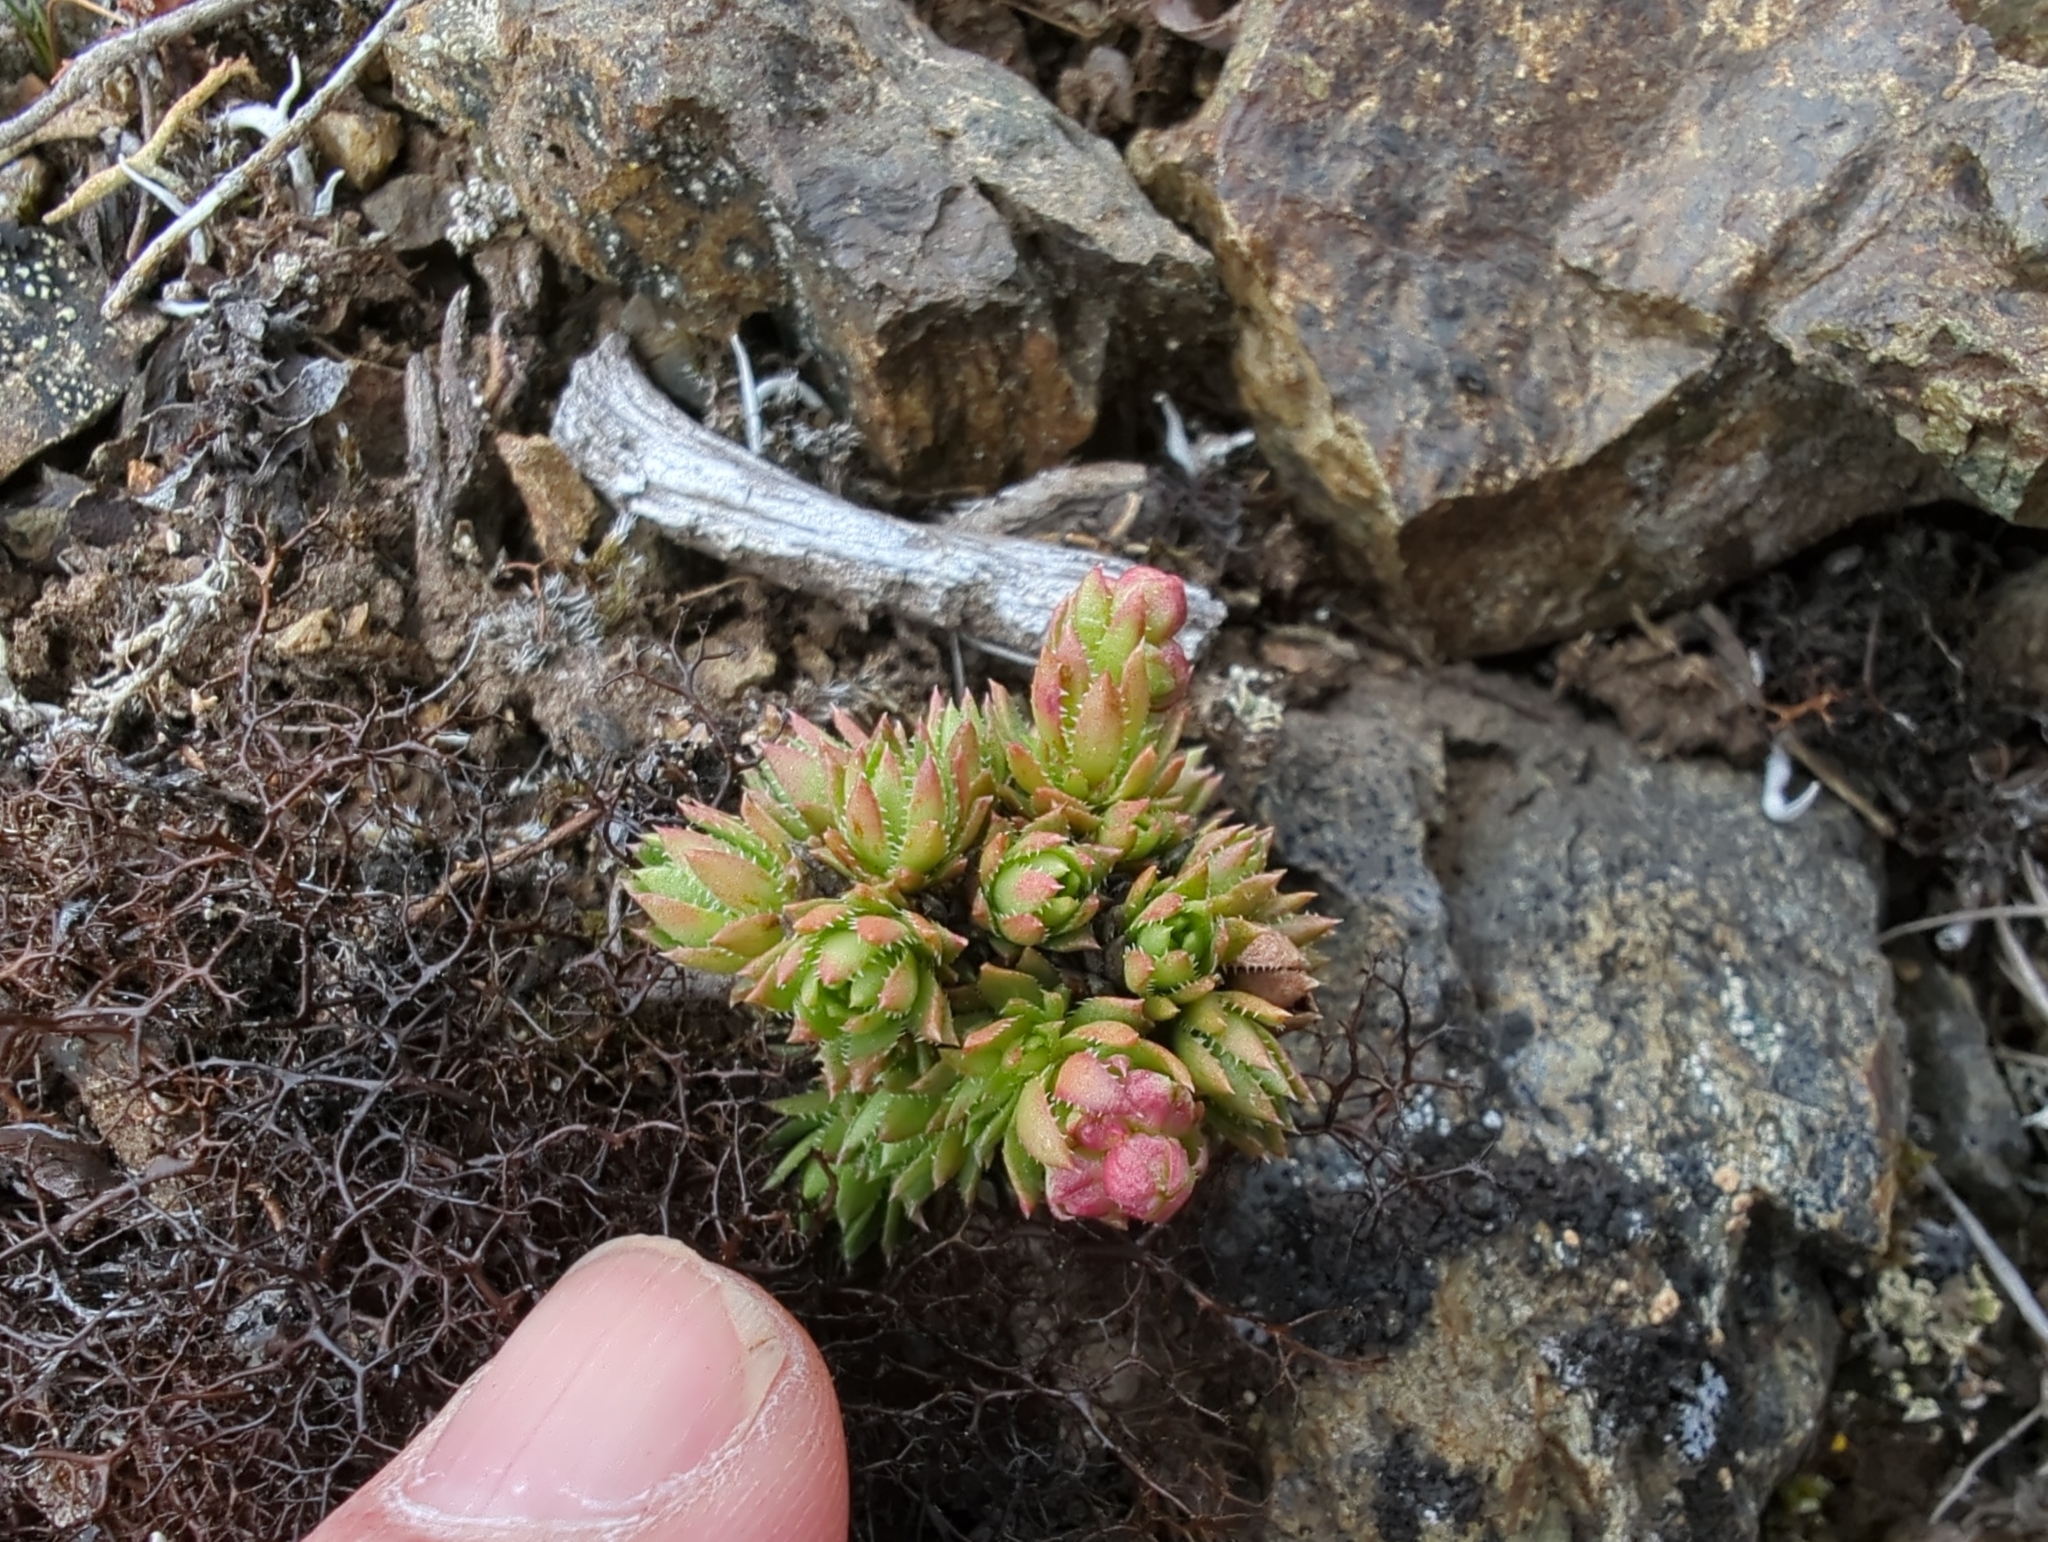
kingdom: Plantae
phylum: Tracheophyta
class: Magnoliopsida
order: Saxifragales
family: Saxifragaceae
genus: Saxifraga
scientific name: Saxifraga bronchialis
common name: Matted saxifrage
